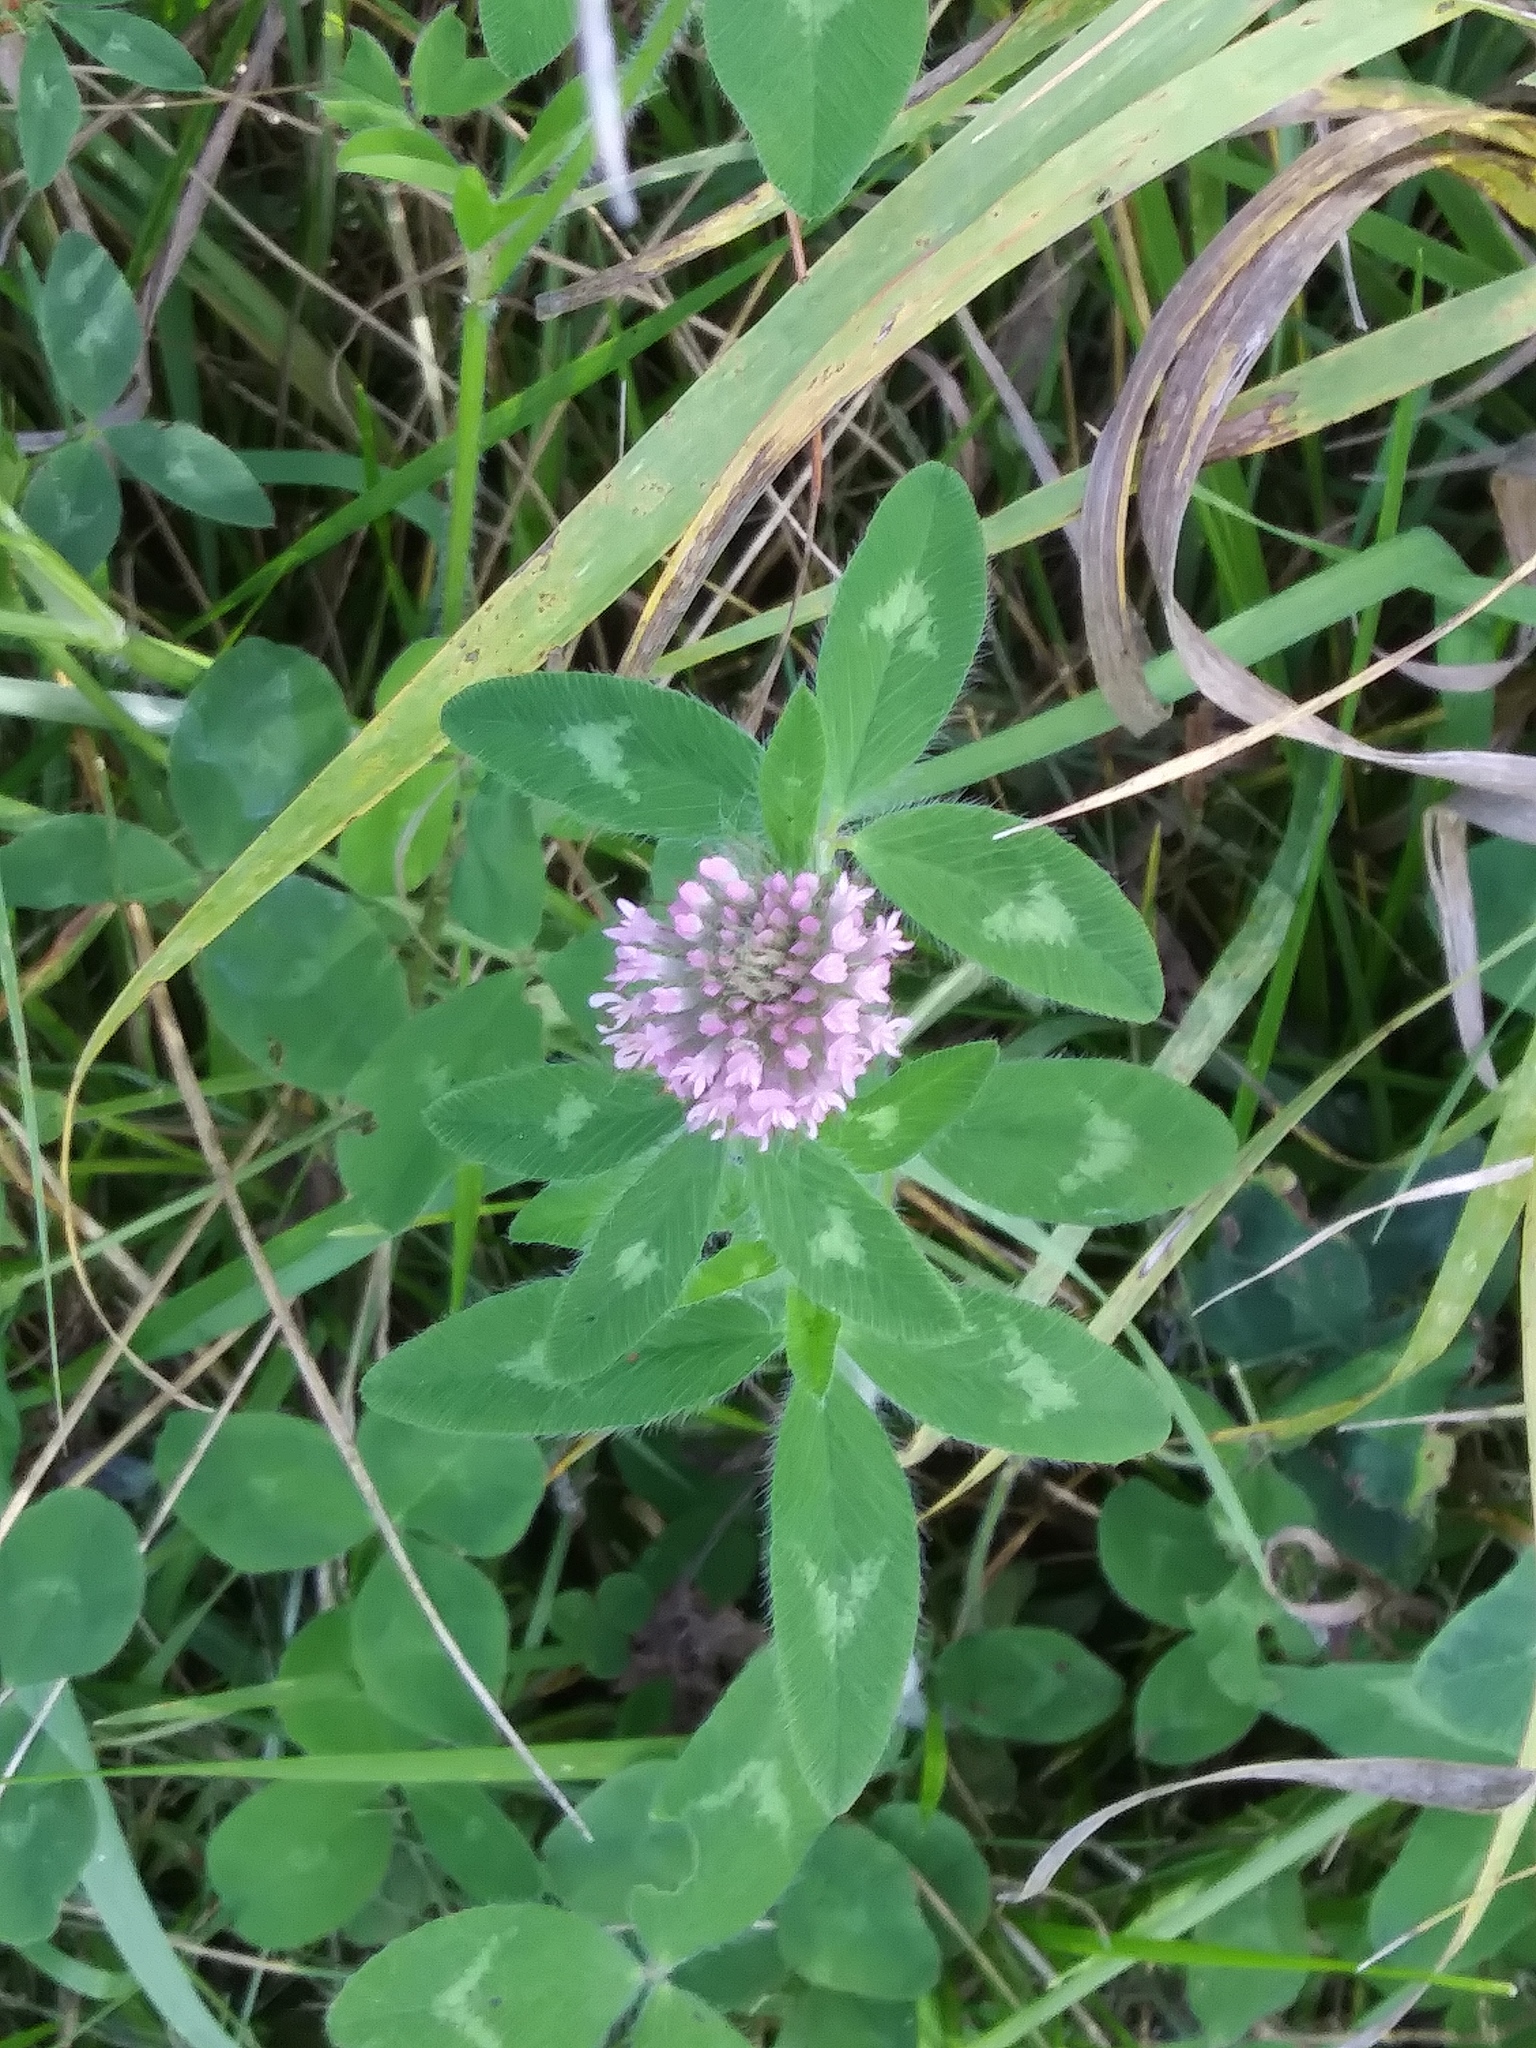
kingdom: Plantae
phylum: Tracheophyta
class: Magnoliopsida
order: Fabales
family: Fabaceae
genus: Trifolium
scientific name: Trifolium pratense
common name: Red clover
